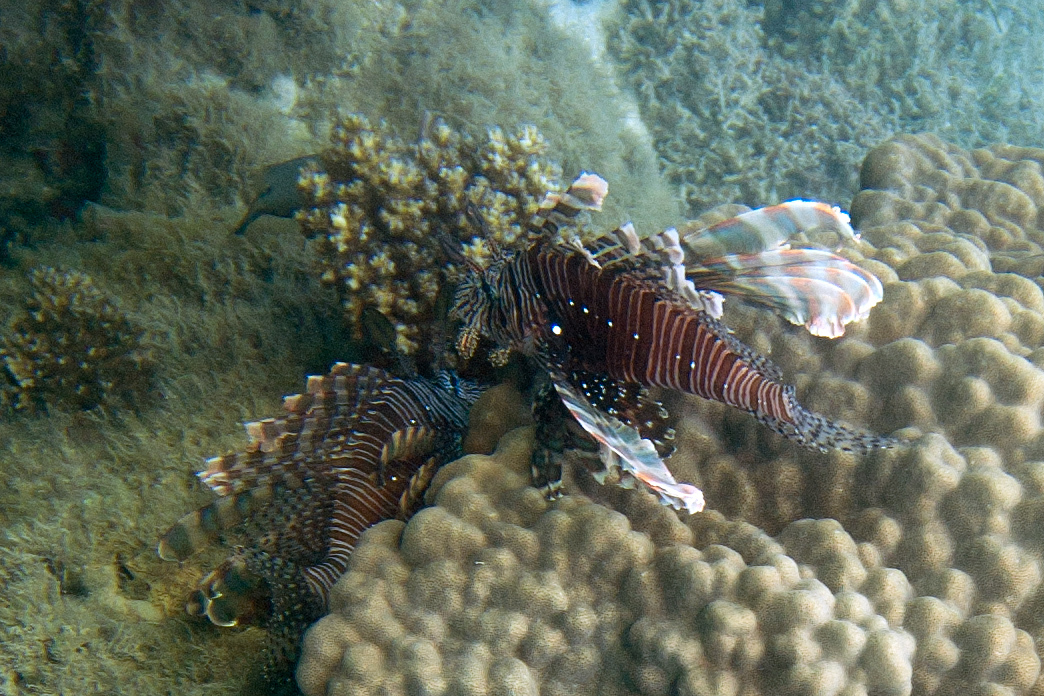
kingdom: Animalia
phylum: Chordata
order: Scorpaeniformes
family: Scorpaenidae
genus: Pterois
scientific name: Pterois volitans
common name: Lionfish
